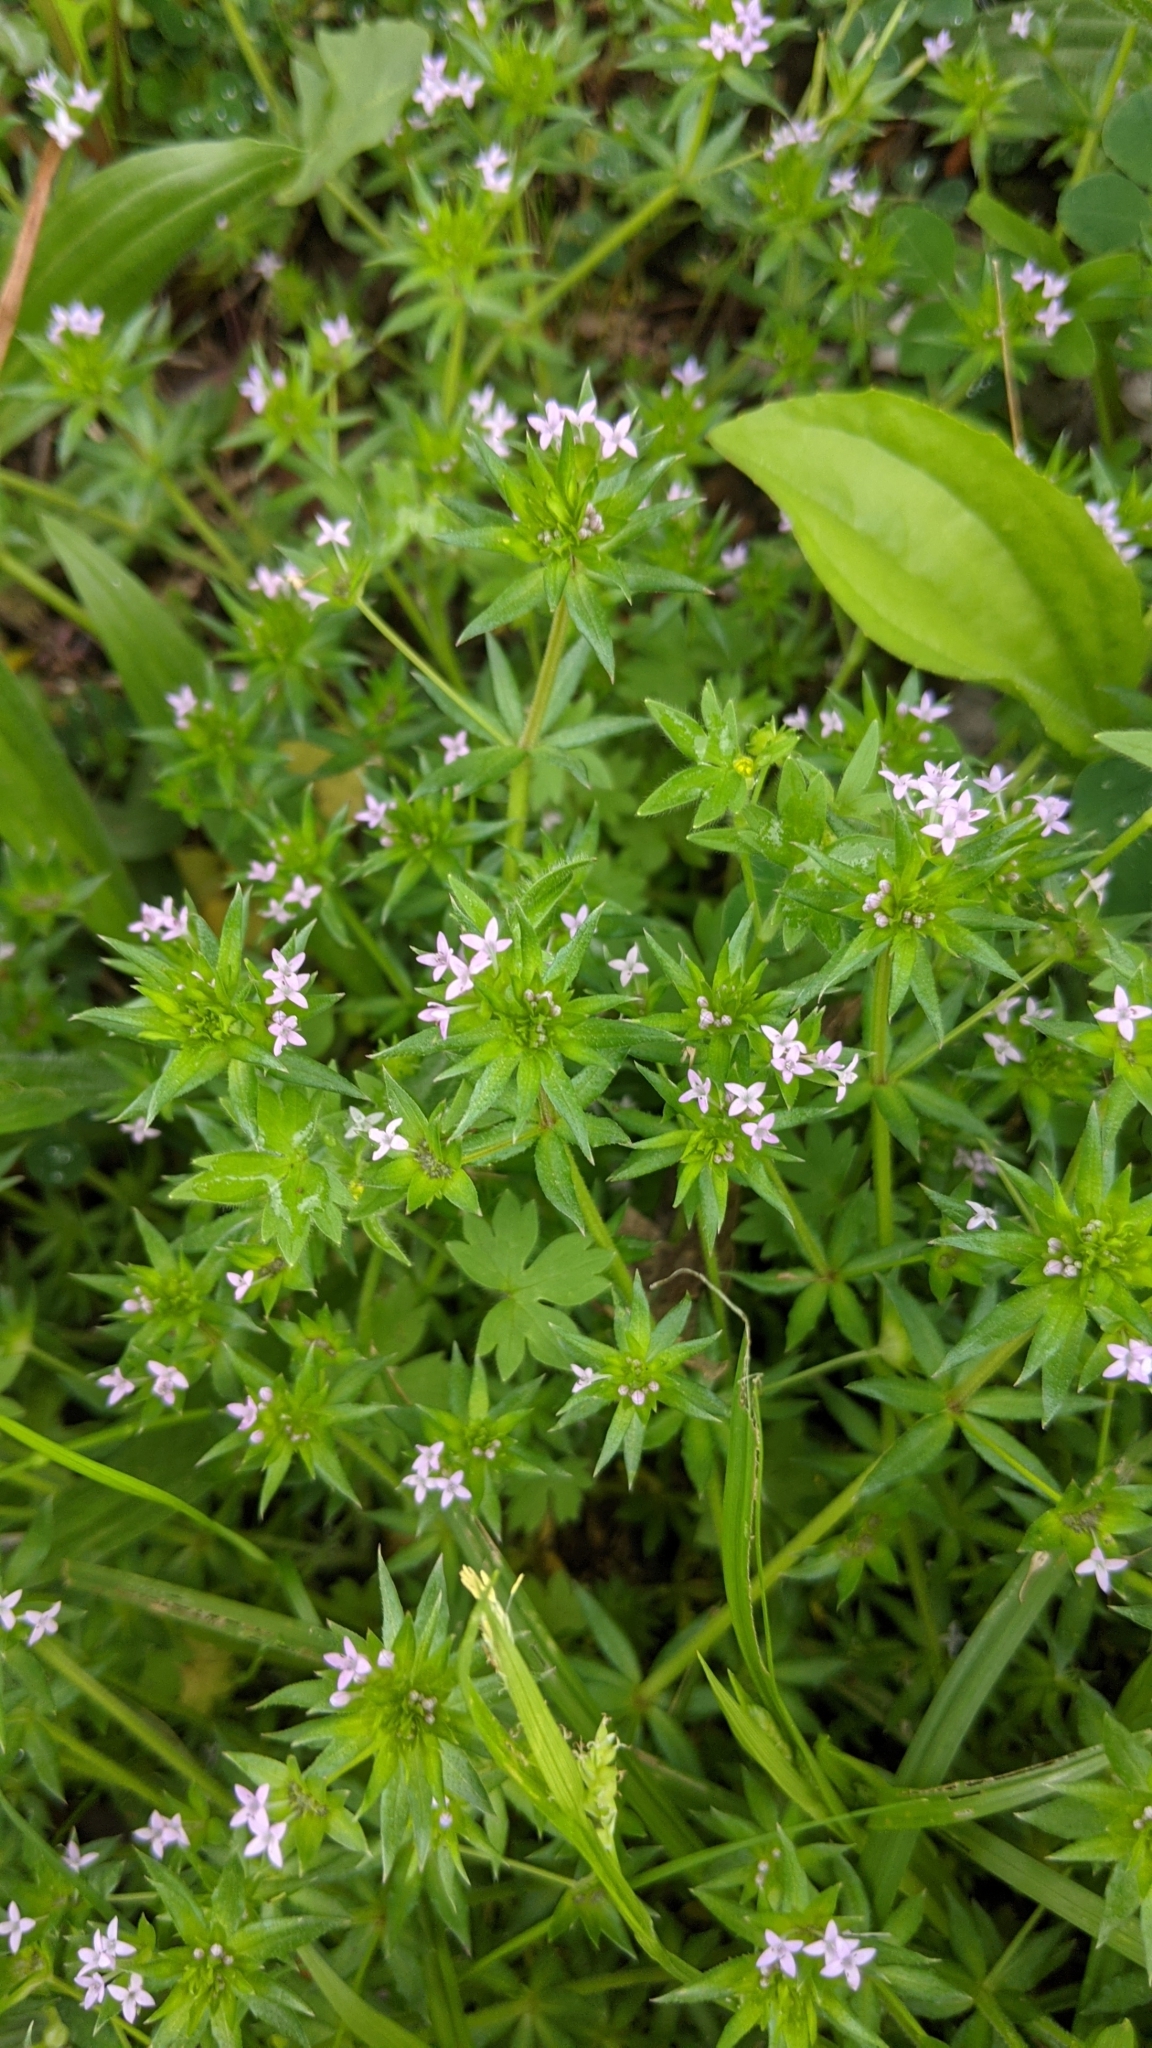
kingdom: Plantae
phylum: Tracheophyta
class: Magnoliopsida
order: Gentianales
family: Rubiaceae
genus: Sherardia
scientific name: Sherardia arvensis
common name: Field madder
